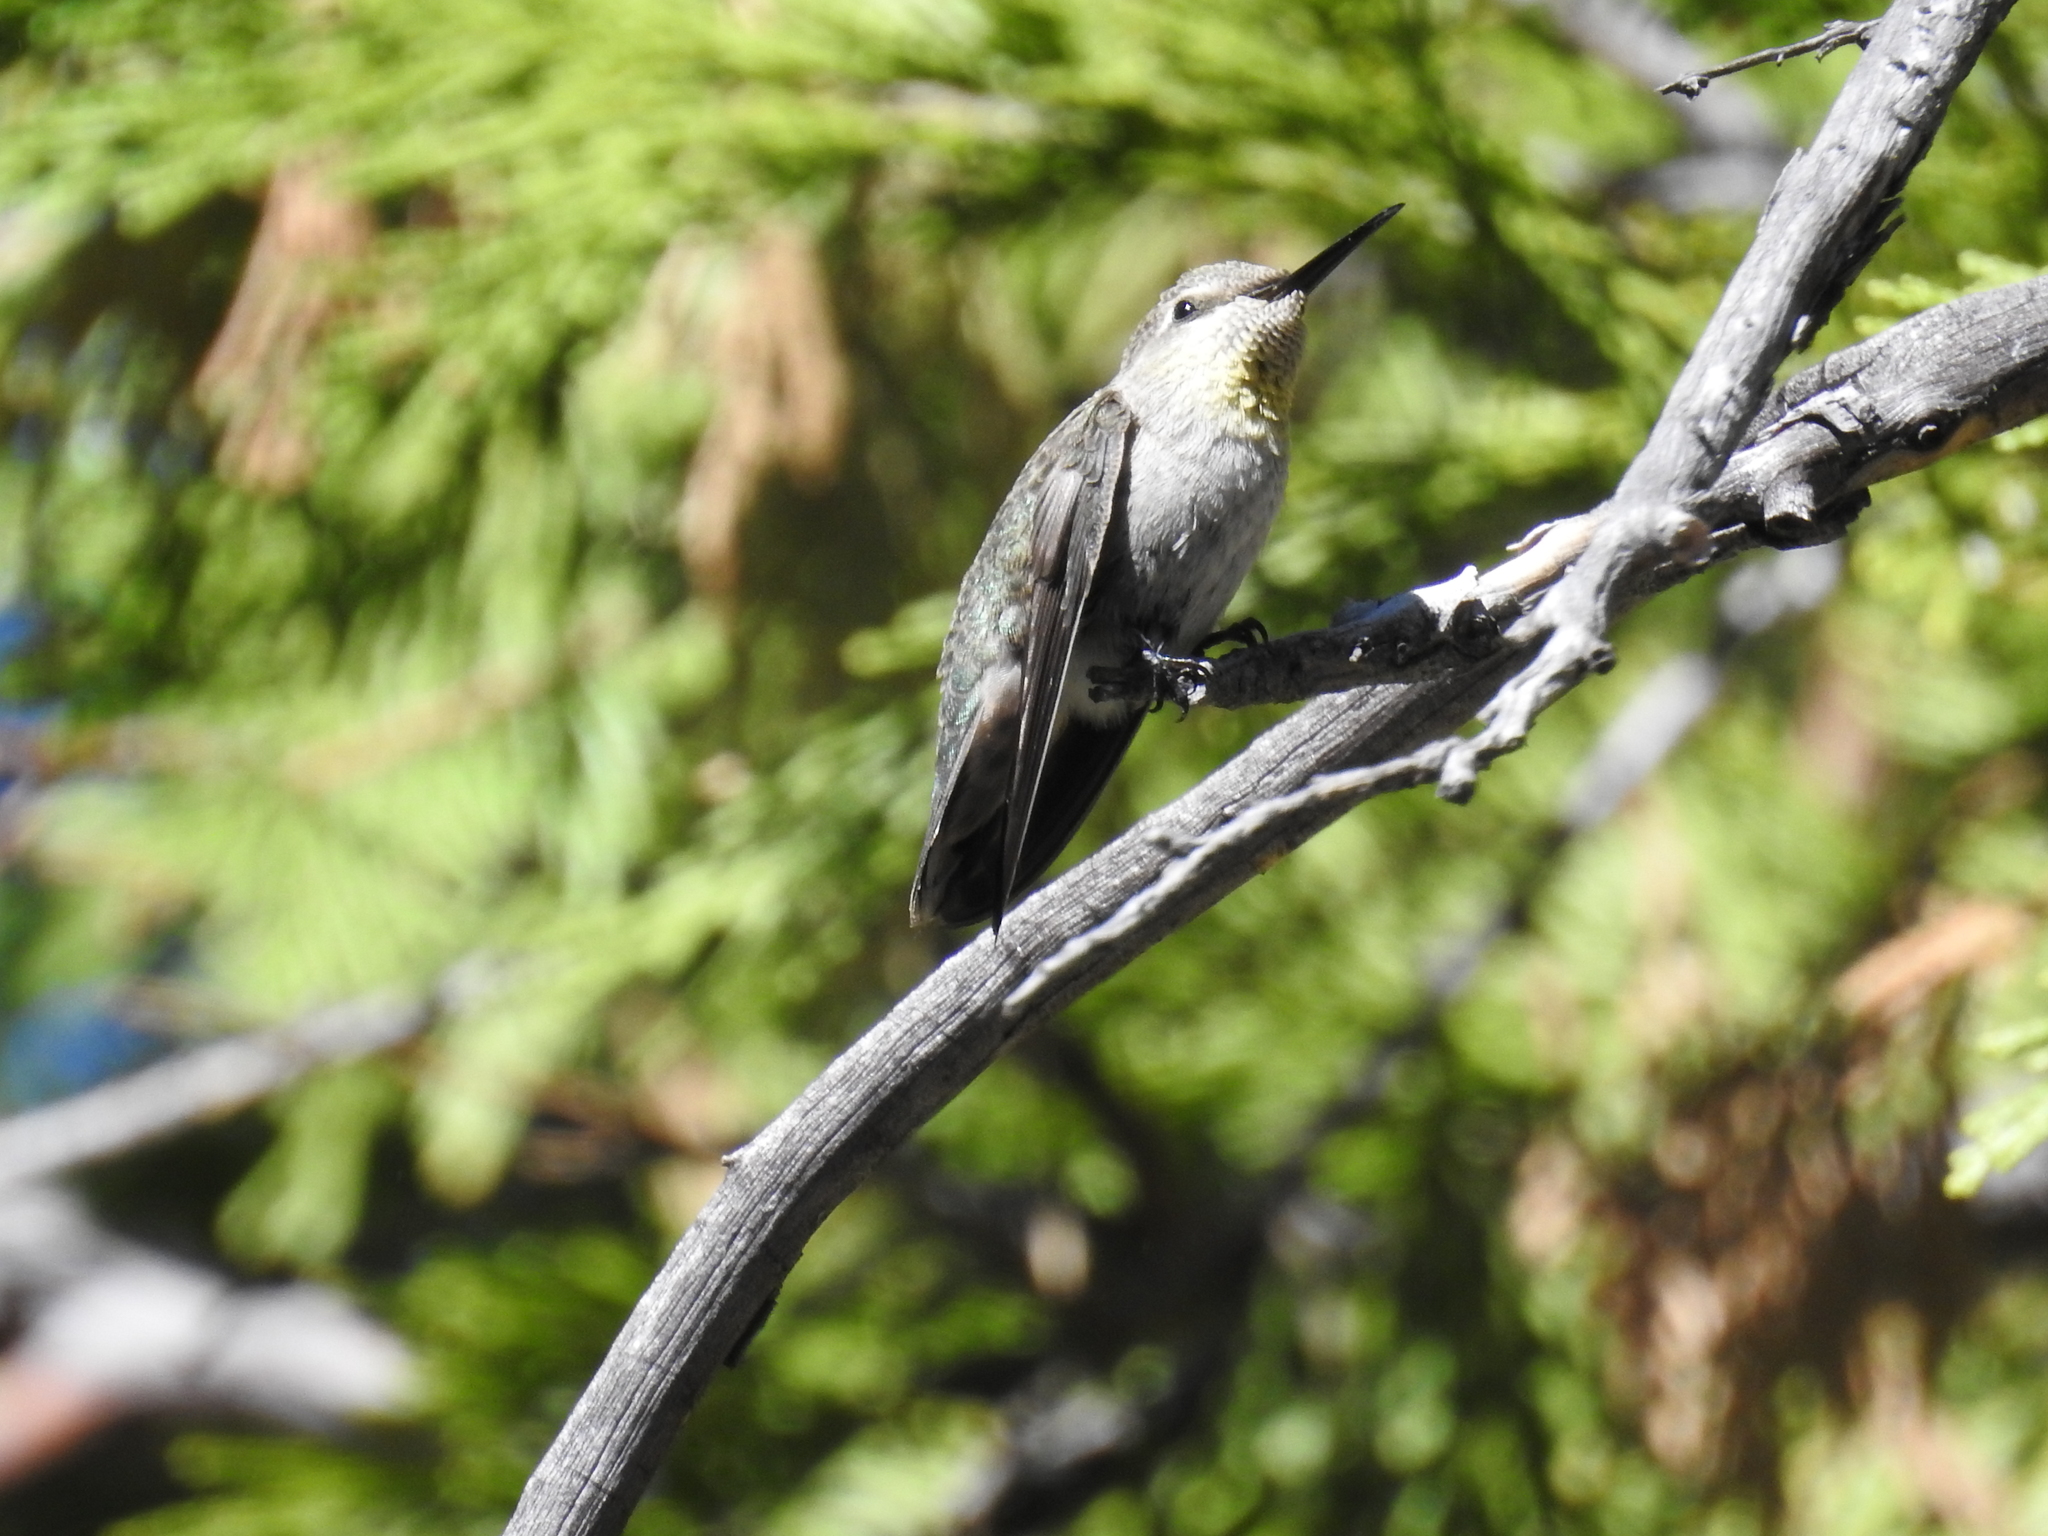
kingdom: Animalia
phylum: Chordata
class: Aves
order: Apodiformes
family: Trochilidae
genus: Calypte
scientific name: Calypte costae
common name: Costa's hummingbird
